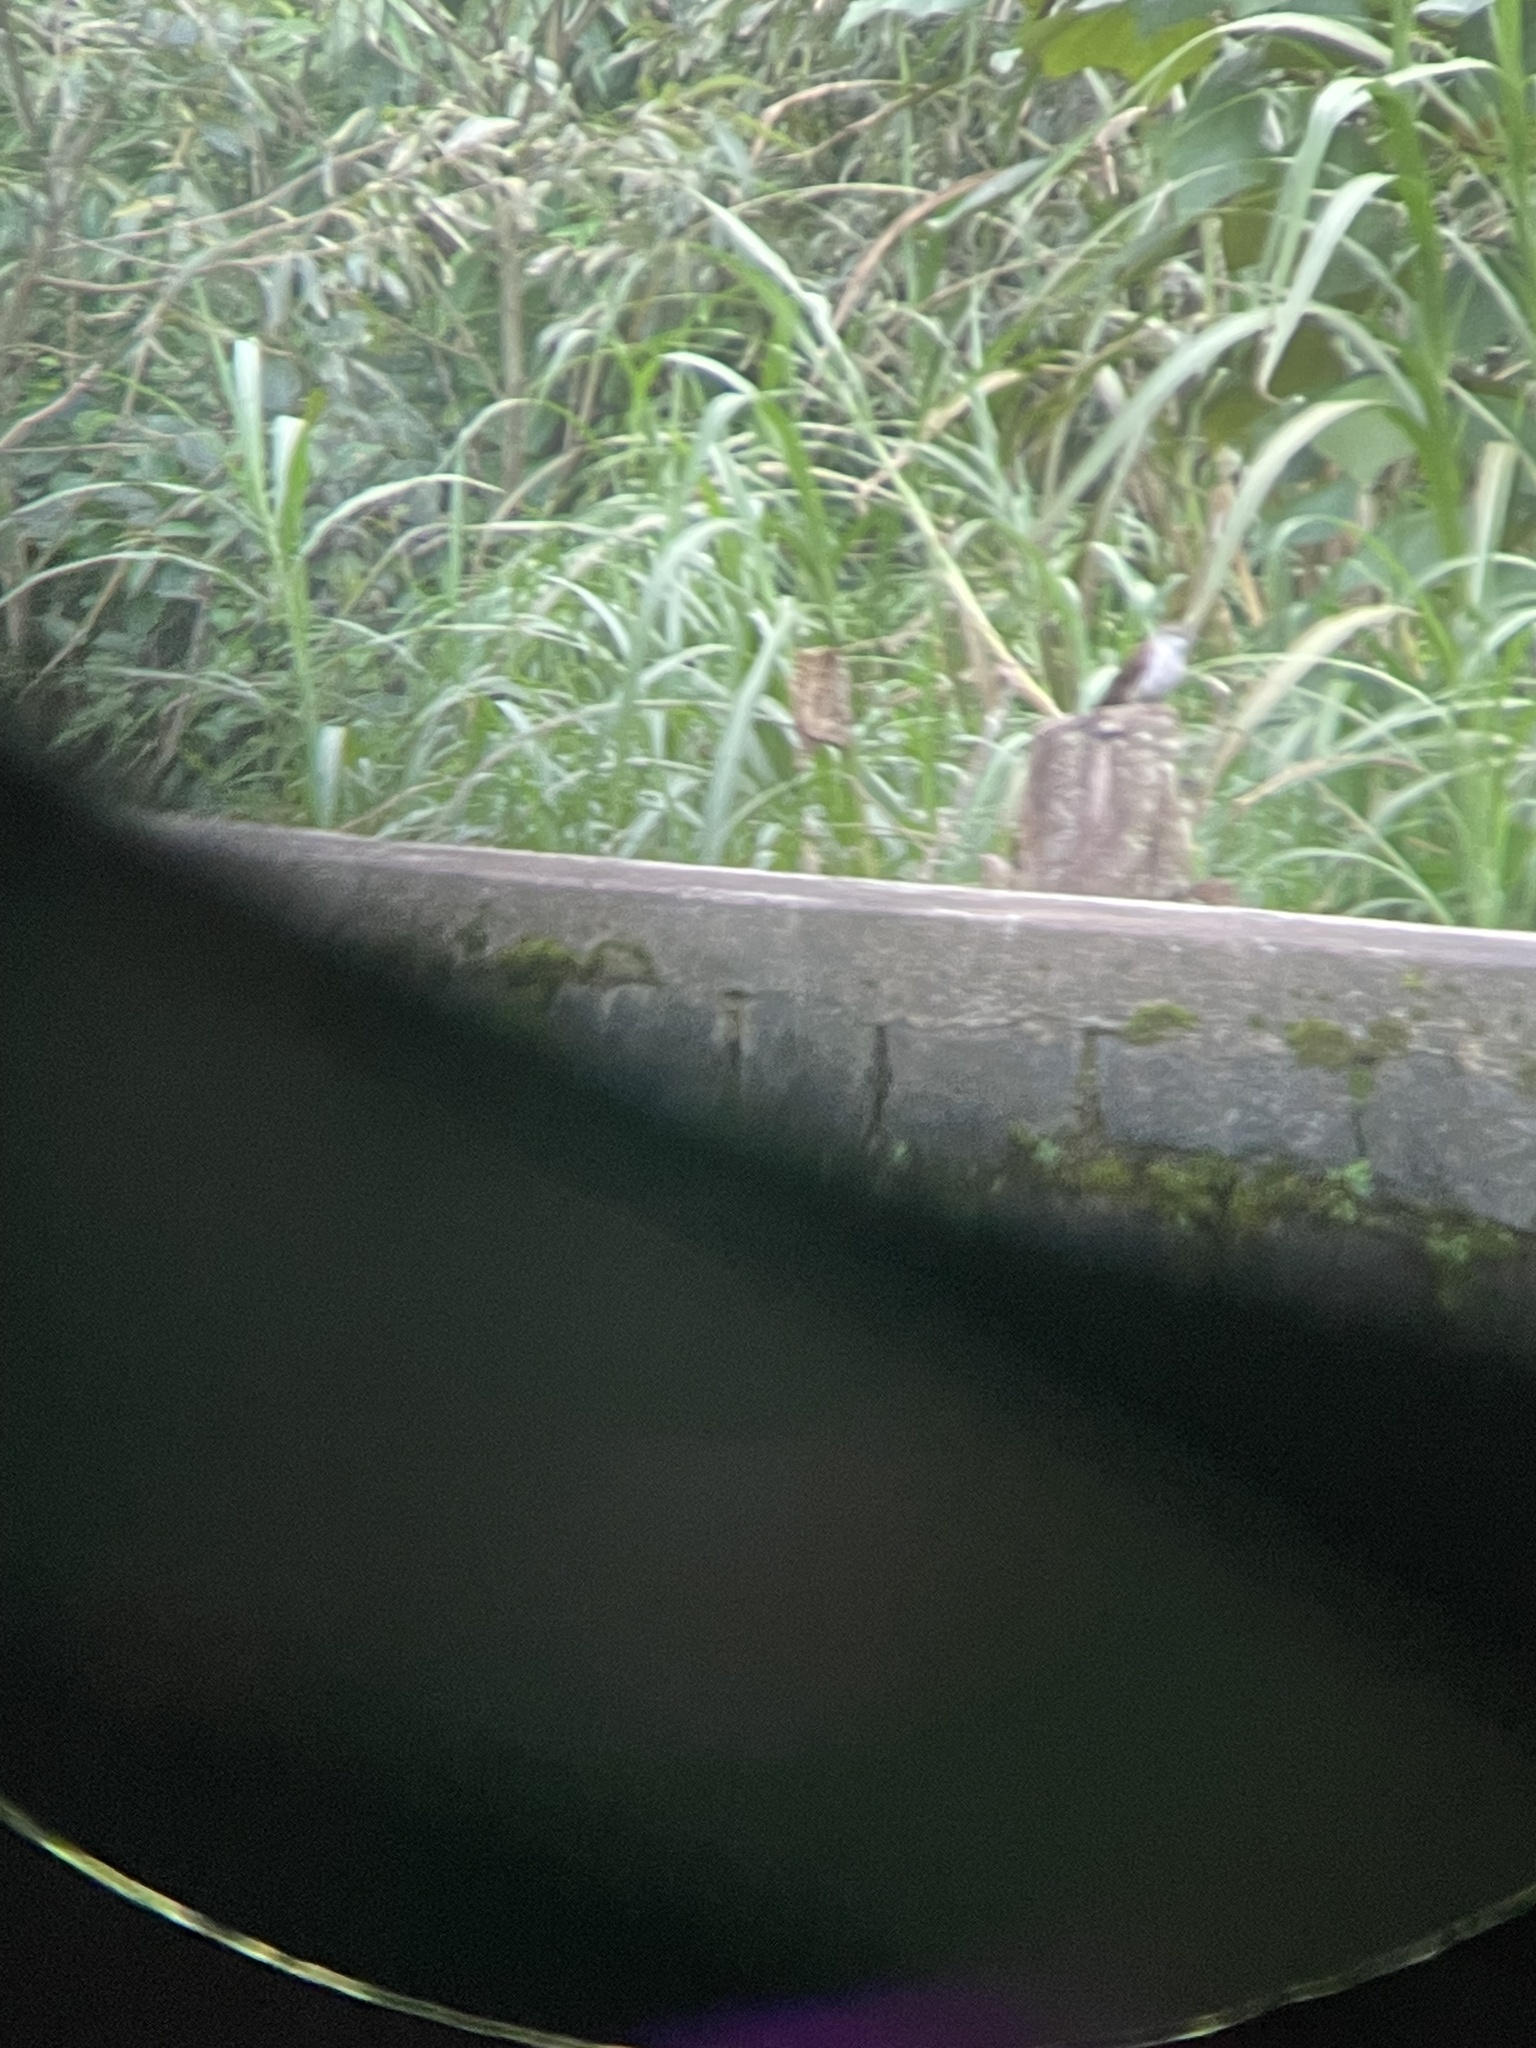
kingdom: Animalia
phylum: Chordata
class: Aves
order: Cuculiformes
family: Cuculidae
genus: Cacomantis
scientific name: Cacomantis sonneratii
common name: Banded bay cuckoo
